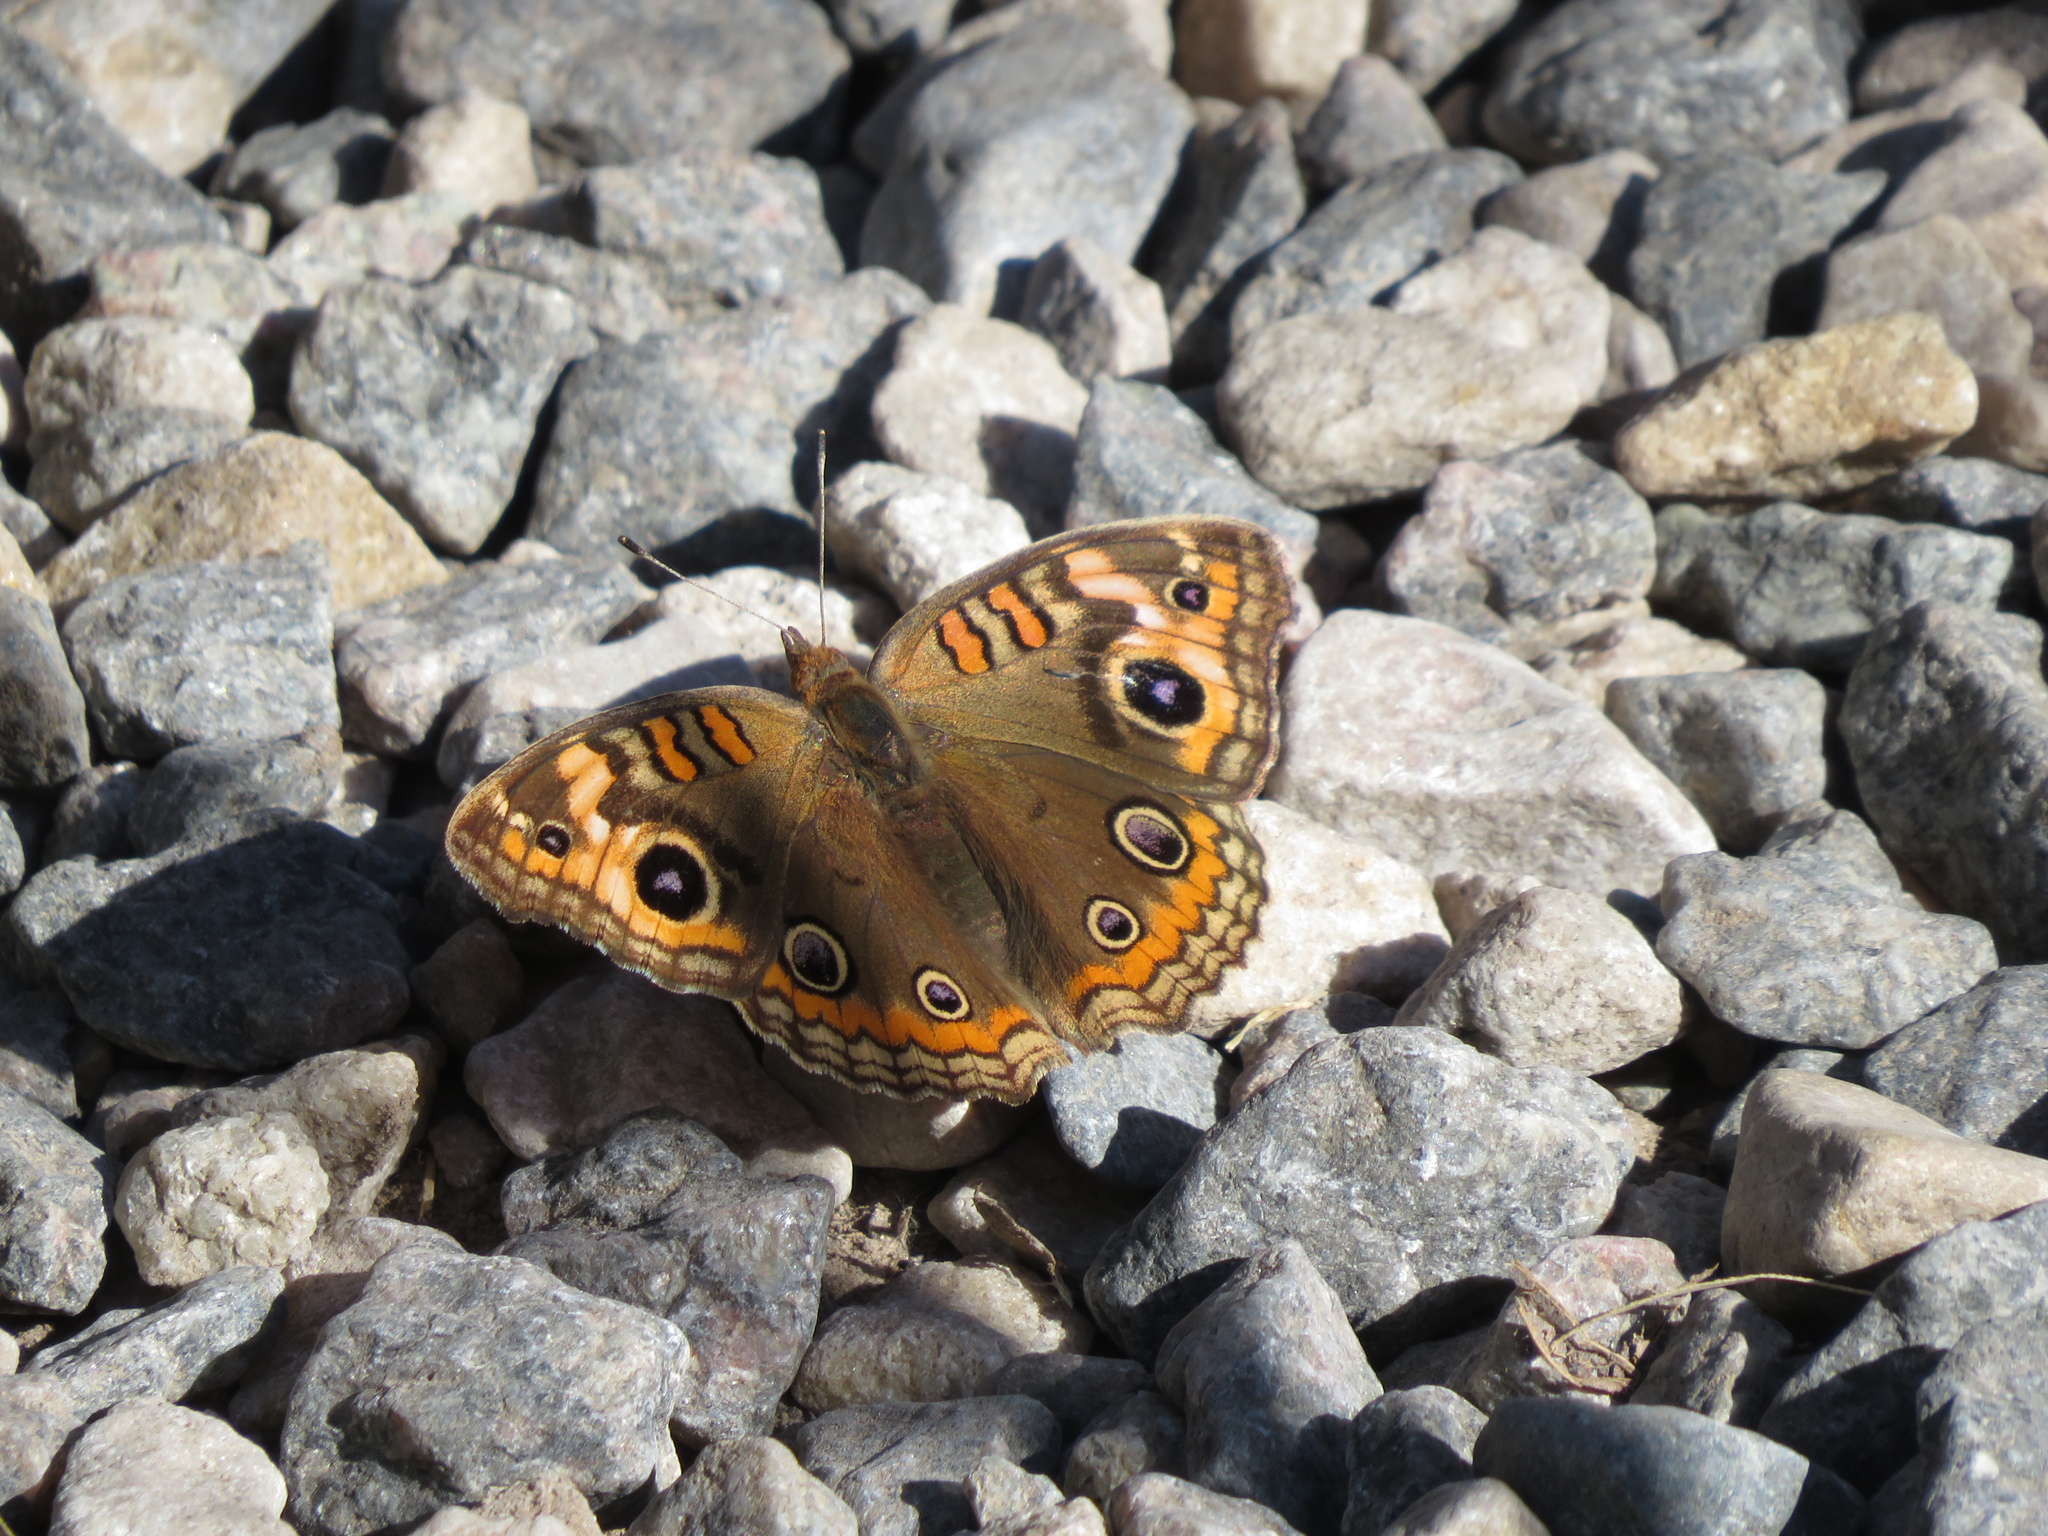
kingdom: Animalia
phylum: Arthropoda
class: Insecta
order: Lepidoptera
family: Nymphalidae
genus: Junonia
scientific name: Junonia lavinia
